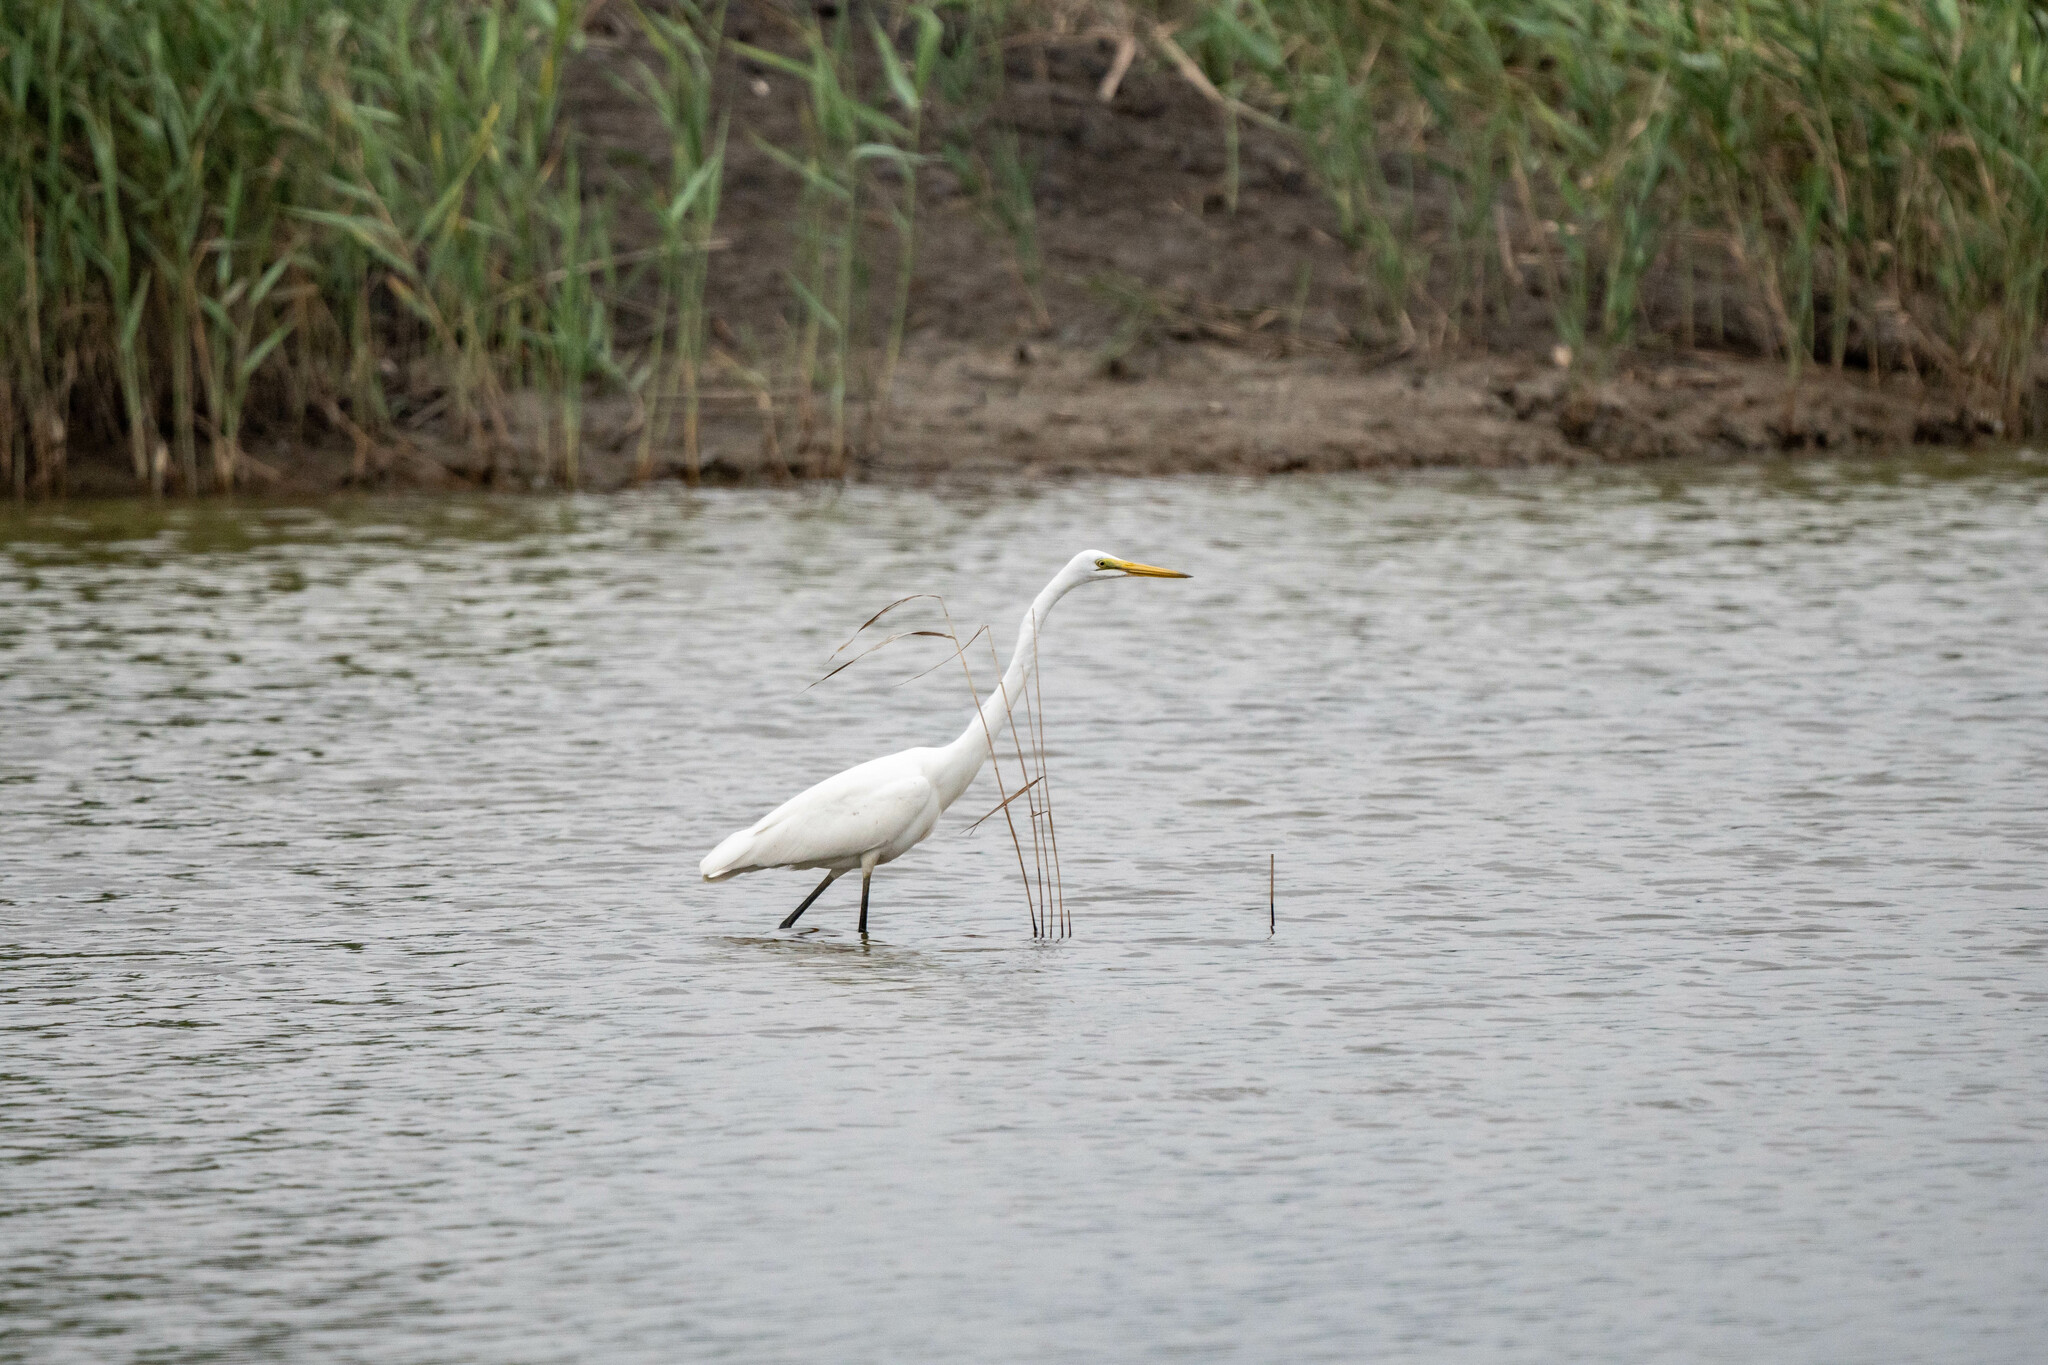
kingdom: Animalia
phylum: Chordata
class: Aves
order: Pelecaniformes
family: Ardeidae
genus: Ardea
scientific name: Ardea alba
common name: Great egret
